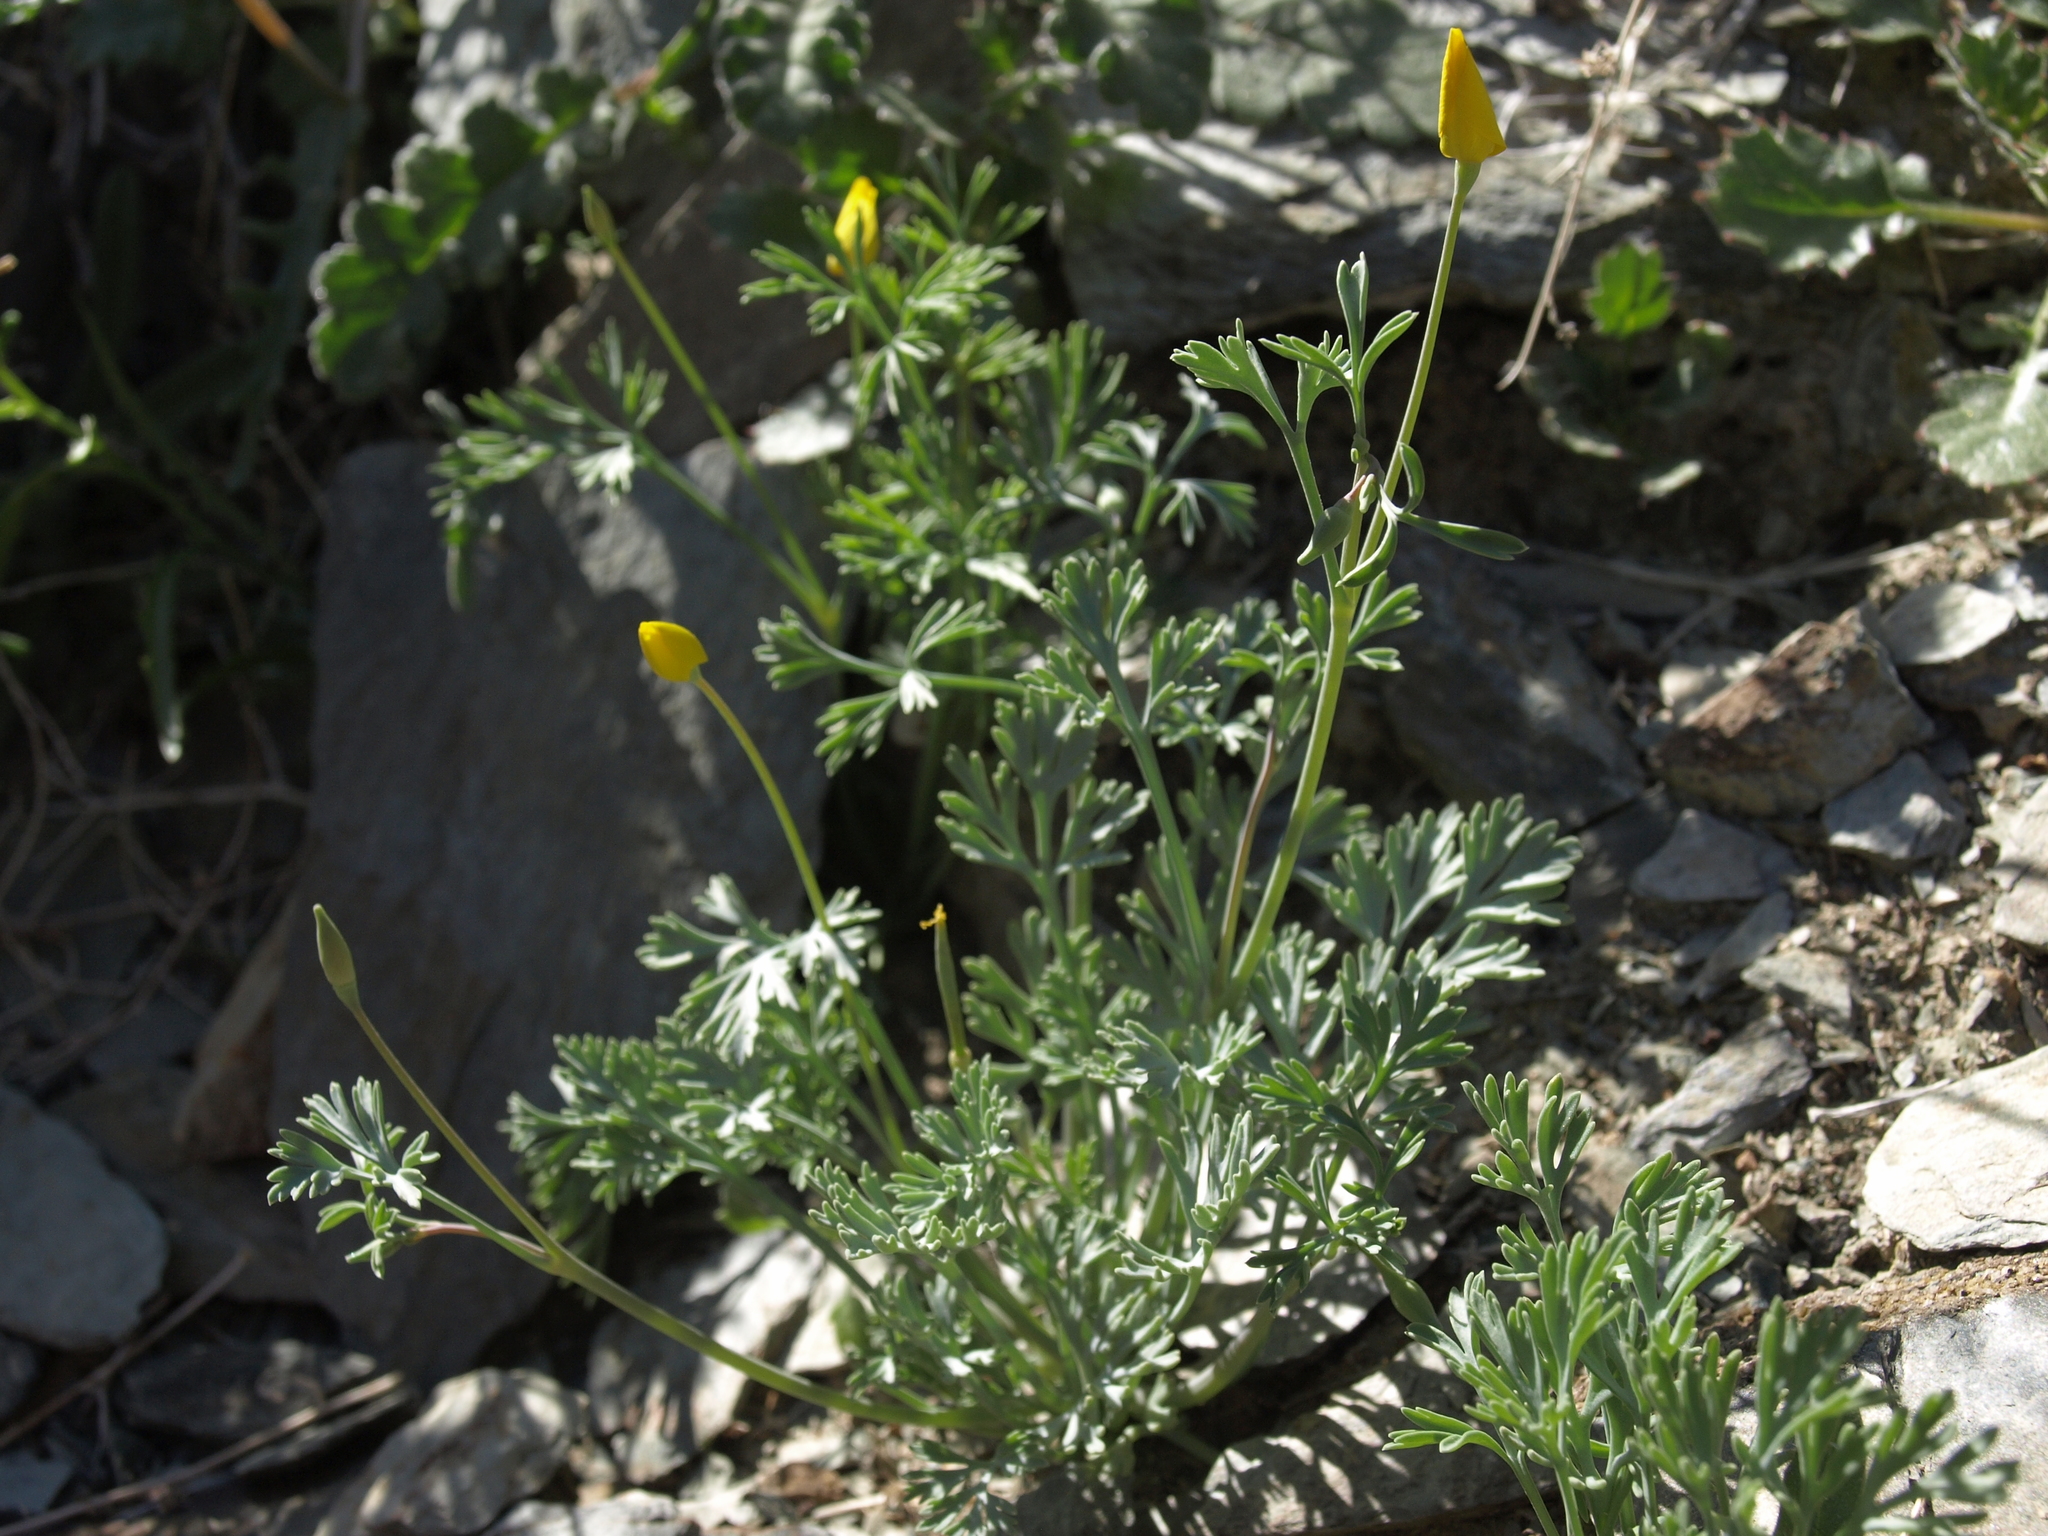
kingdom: Plantae
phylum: Tracheophyta
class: Magnoliopsida
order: Ranunculales
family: Papaveraceae
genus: Eschscholzia
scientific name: Eschscholzia minutiflora
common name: Small-flower california-poppy
